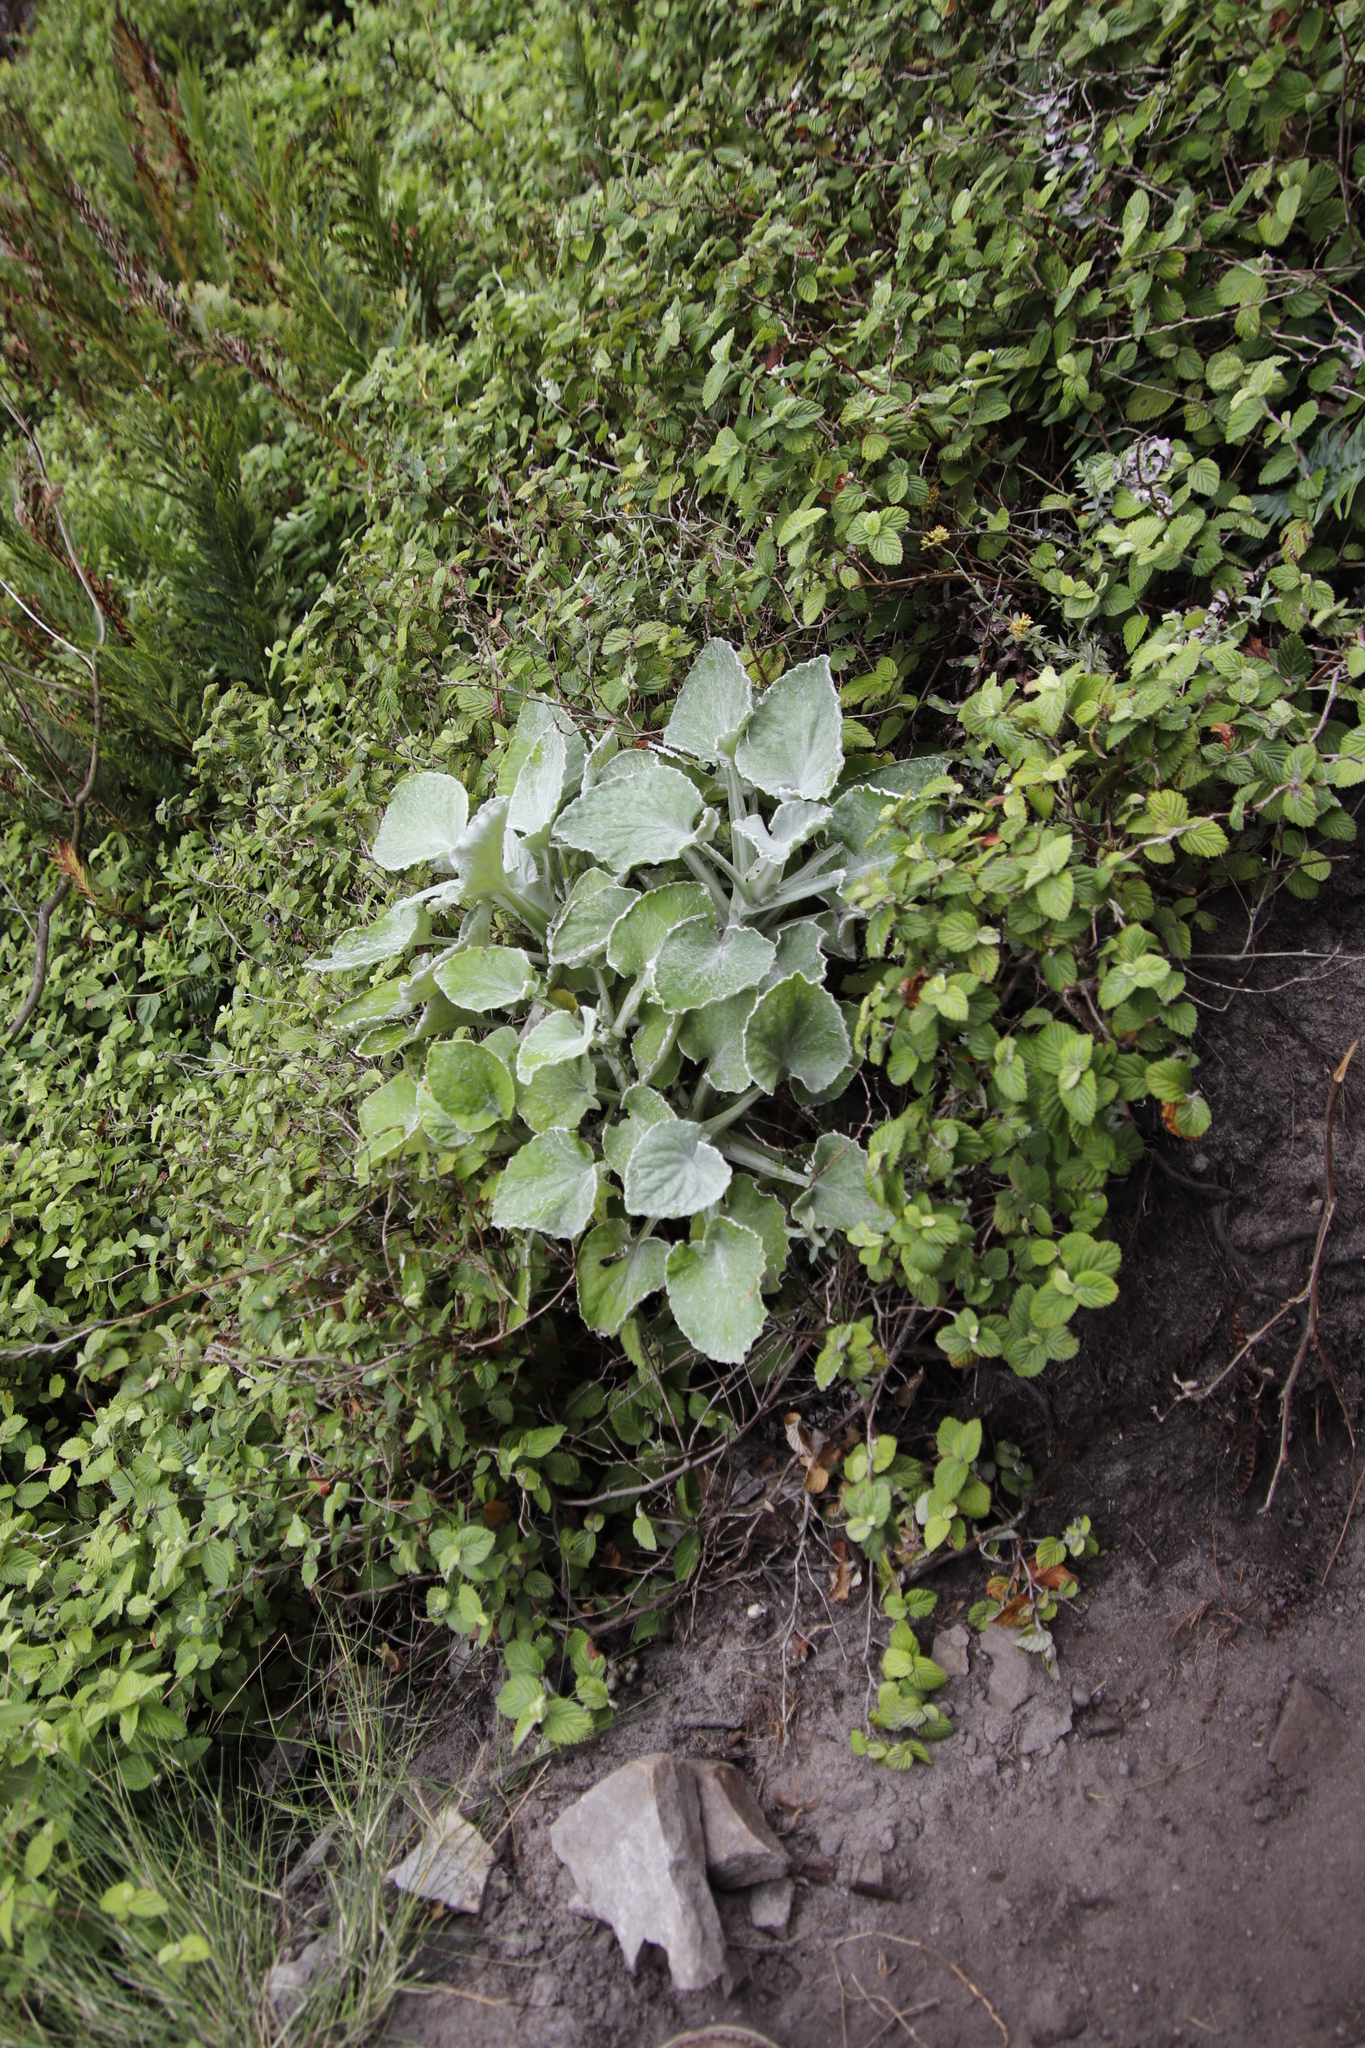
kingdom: Plantae
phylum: Tracheophyta
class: Magnoliopsida
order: Asterales
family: Asteraceae
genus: Senecio
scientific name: Senecio verbascifolius
